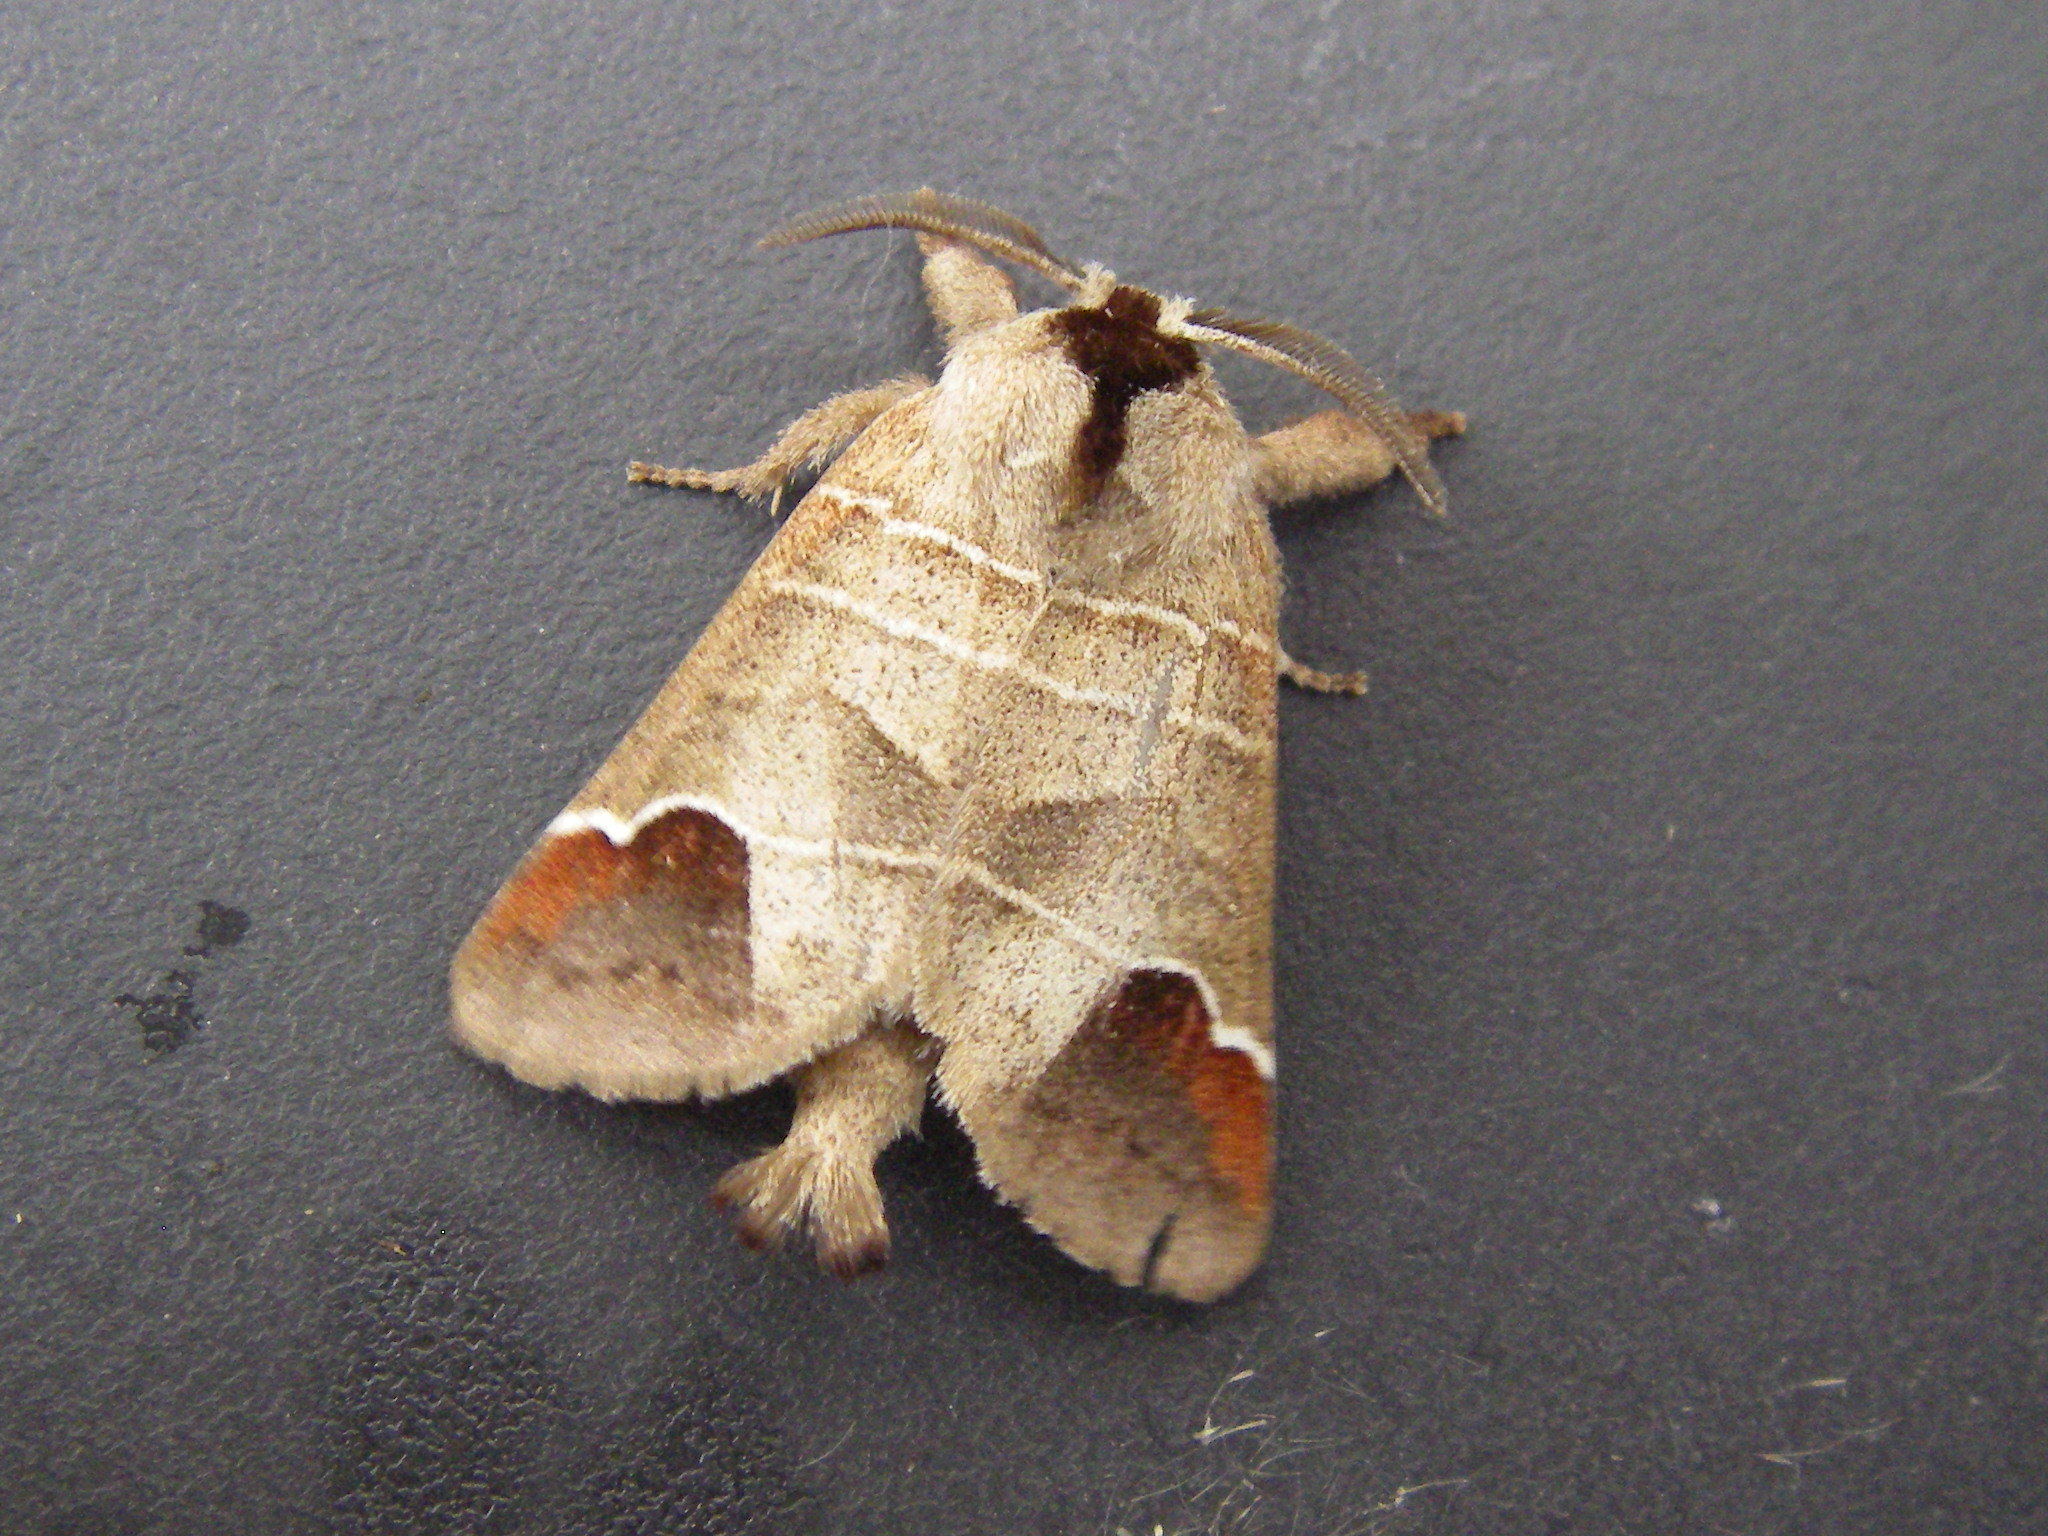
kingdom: Animalia
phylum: Arthropoda
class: Insecta
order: Lepidoptera
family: Notodontidae
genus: Clostera
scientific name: Clostera curtula
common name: Chocolate-tip
